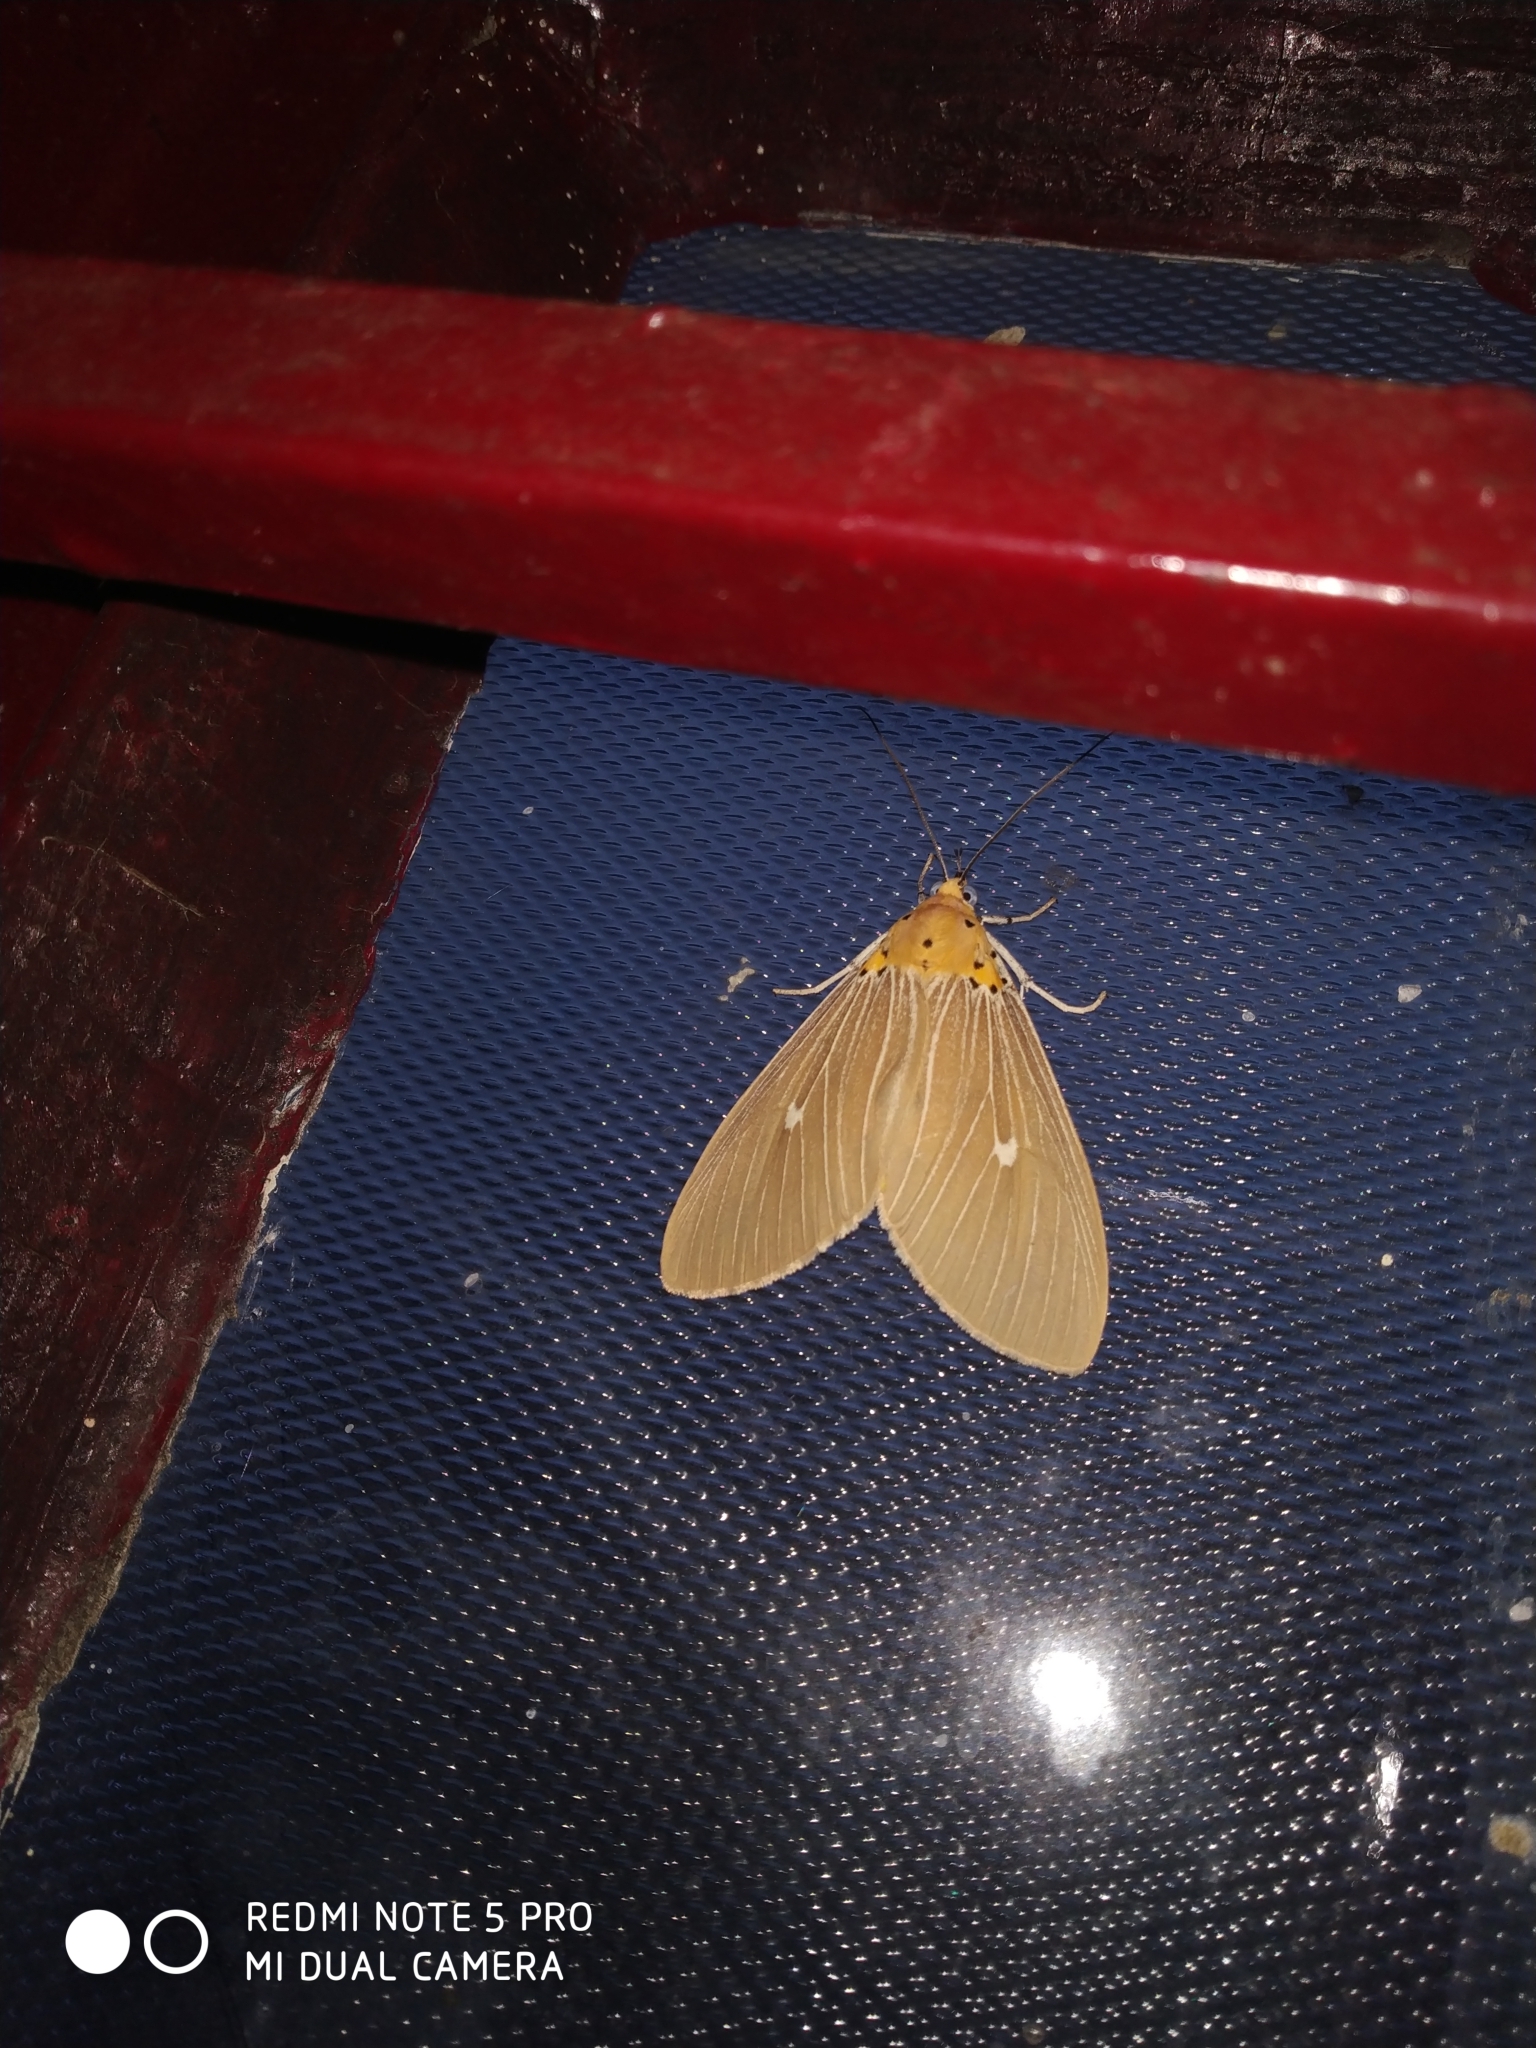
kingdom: Animalia
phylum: Arthropoda
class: Insecta
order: Lepidoptera
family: Erebidae
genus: Asota
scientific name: Asota caricae
